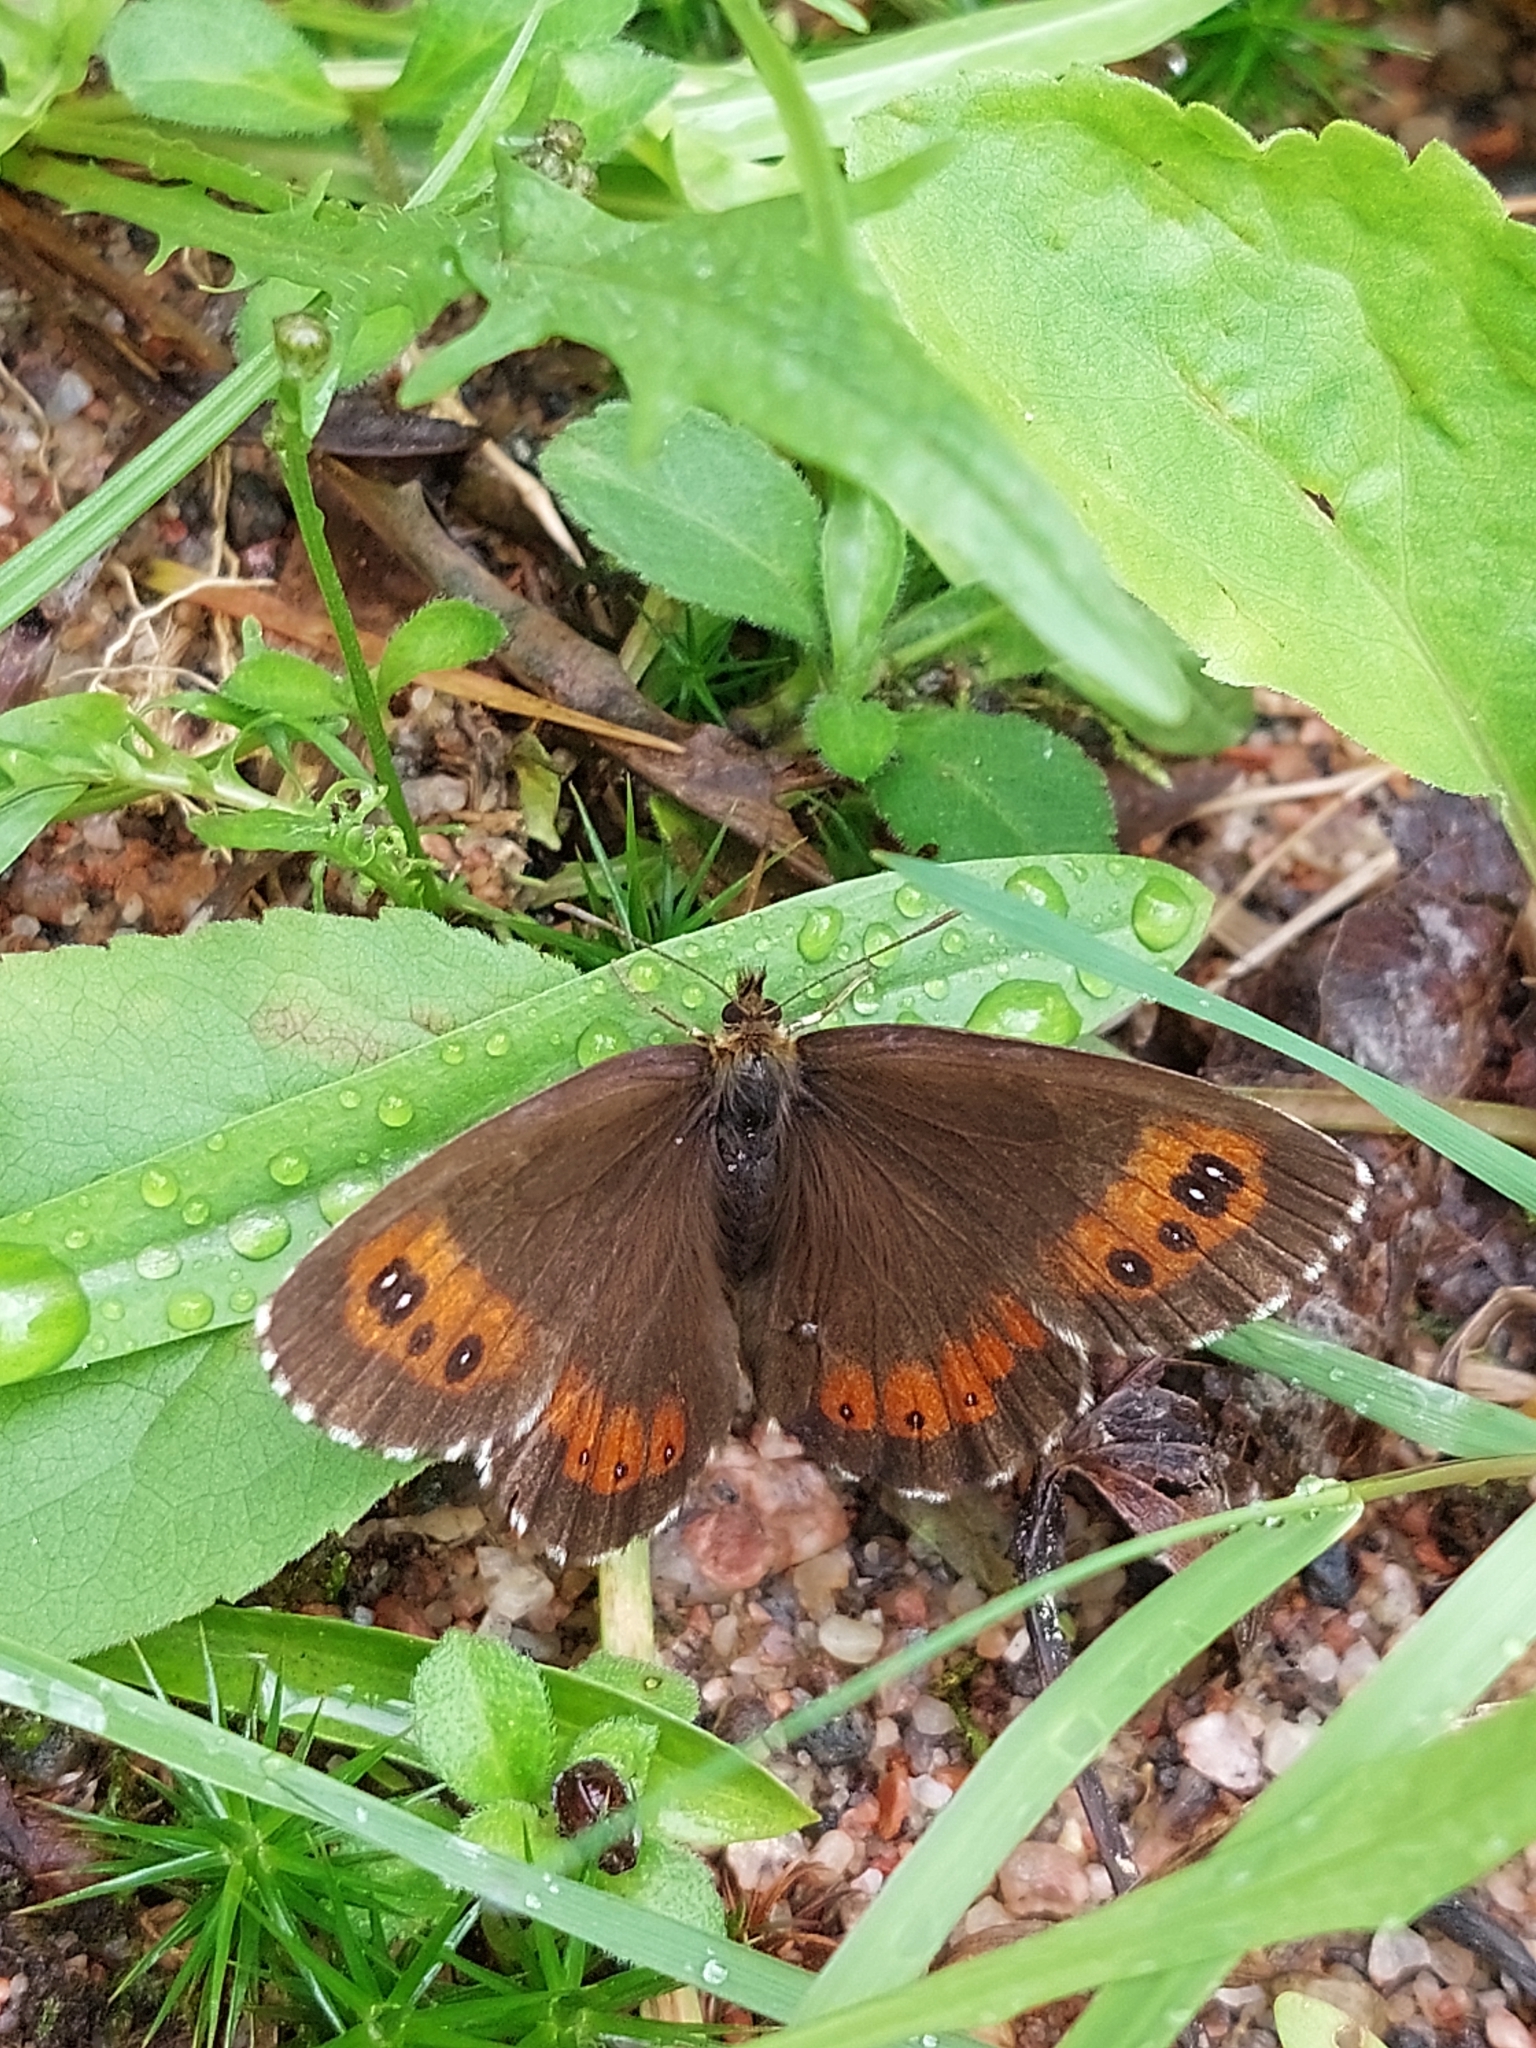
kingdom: Animalia
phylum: Arthropoda
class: Insecta
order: Lepidoptera
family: Nymphalidae
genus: Erebia
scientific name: Erebia ligea
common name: Arran brown
